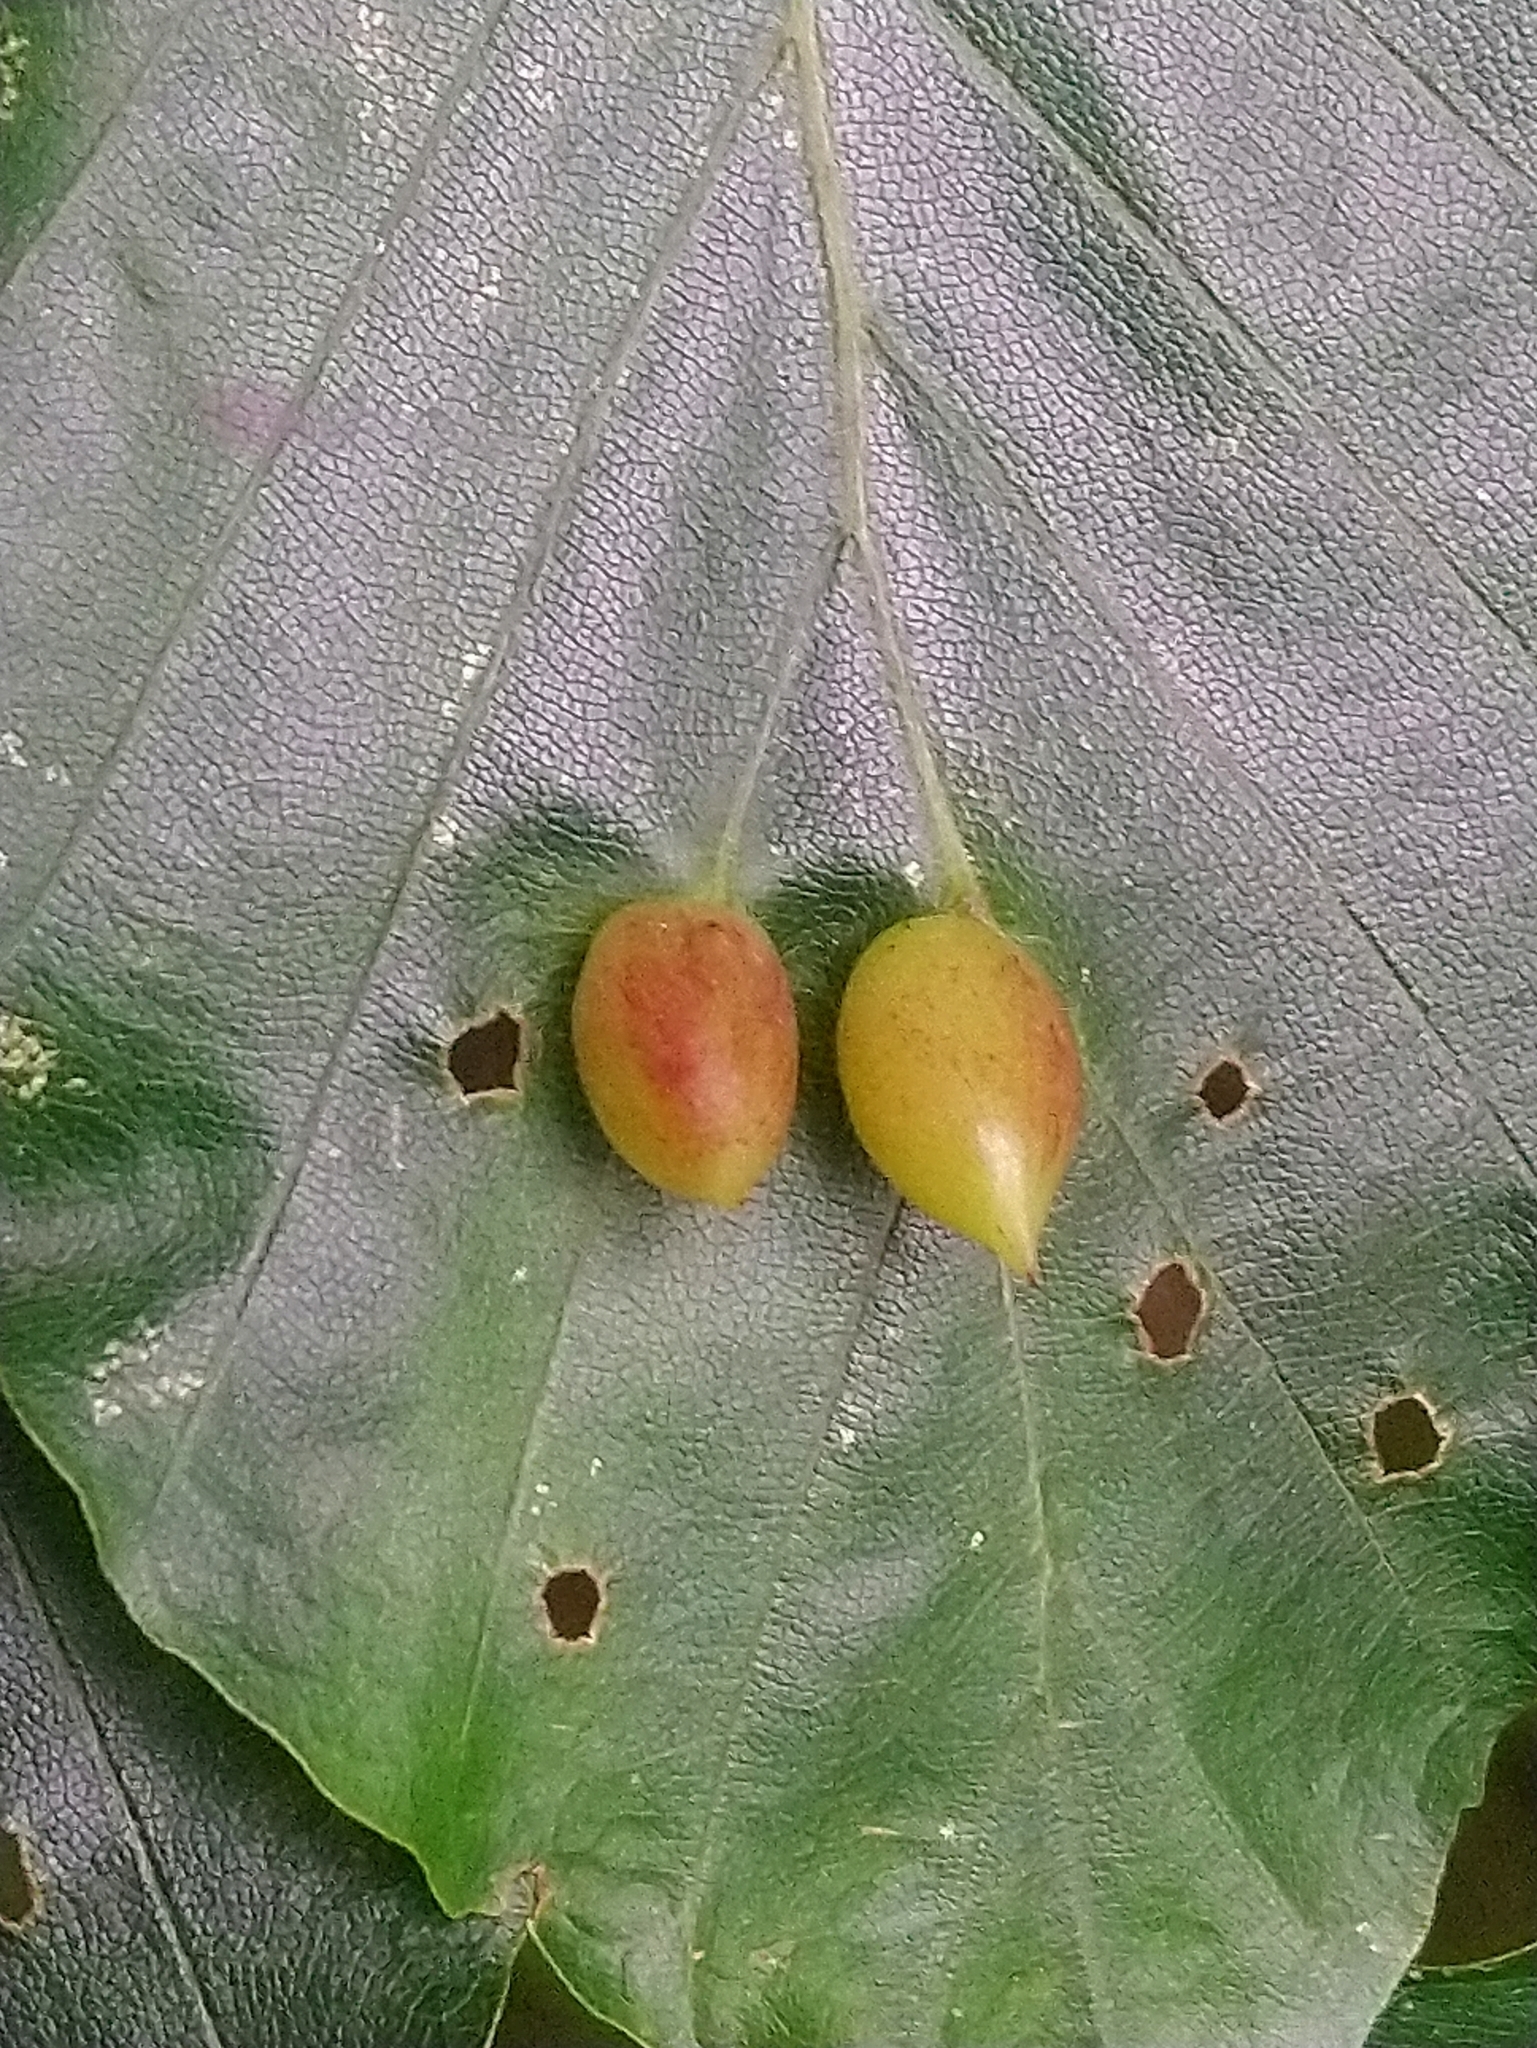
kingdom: Animalia
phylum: Arthropoda
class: Insecta
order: Diptera
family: Cecidomyiidae
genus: Mikiola
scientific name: Mikiola fagi
